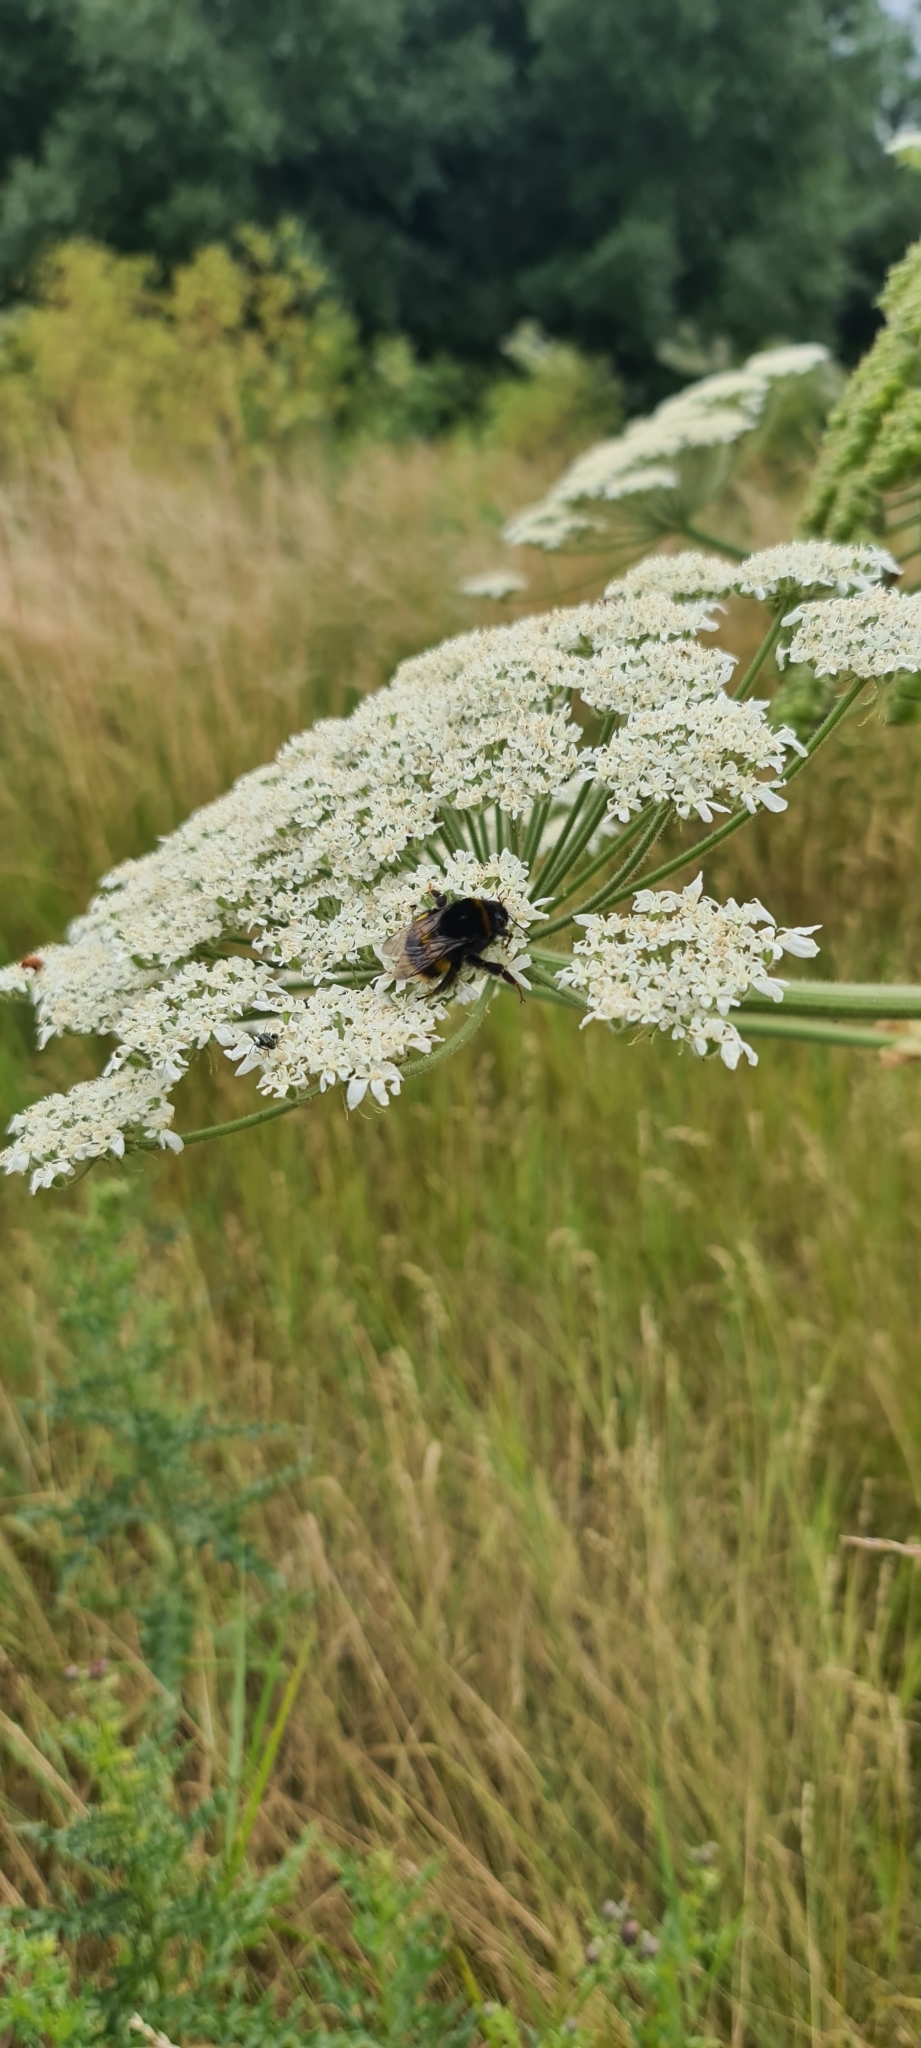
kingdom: Plantae
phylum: Tracheophyta
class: Magnoliopsida
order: Apiales
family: Apiaceae
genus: Heracleum
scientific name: Heracleum mantegazzianum
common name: Giant hogweed
